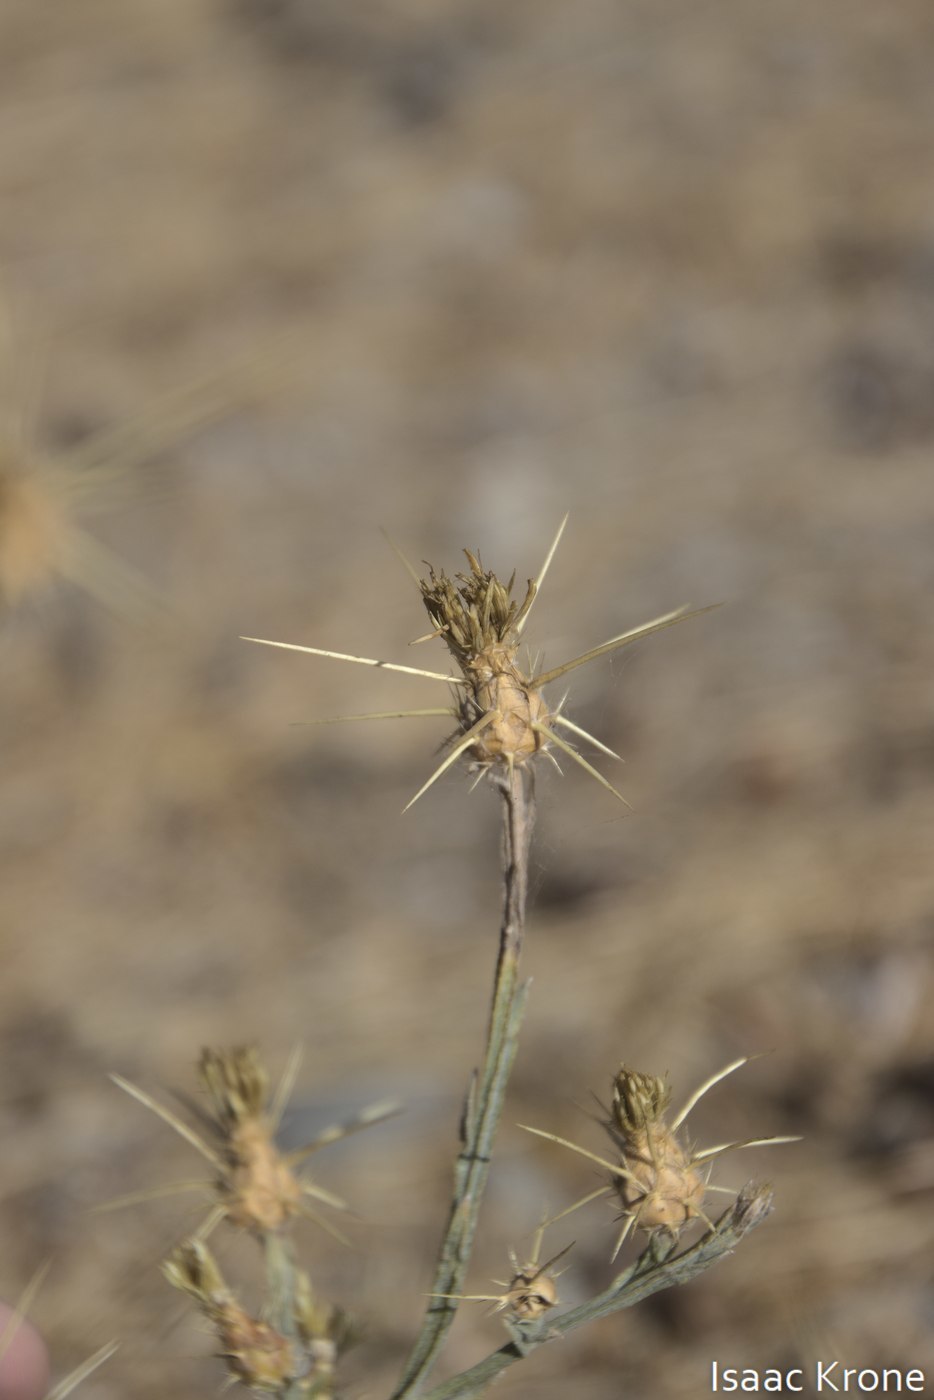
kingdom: Plantae
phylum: Tracheophyta
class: Magnoliopsida
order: Asterales
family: Asteraceae
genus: Centaurea
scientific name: Centaurea solstitialis
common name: Yellow star-thistle
